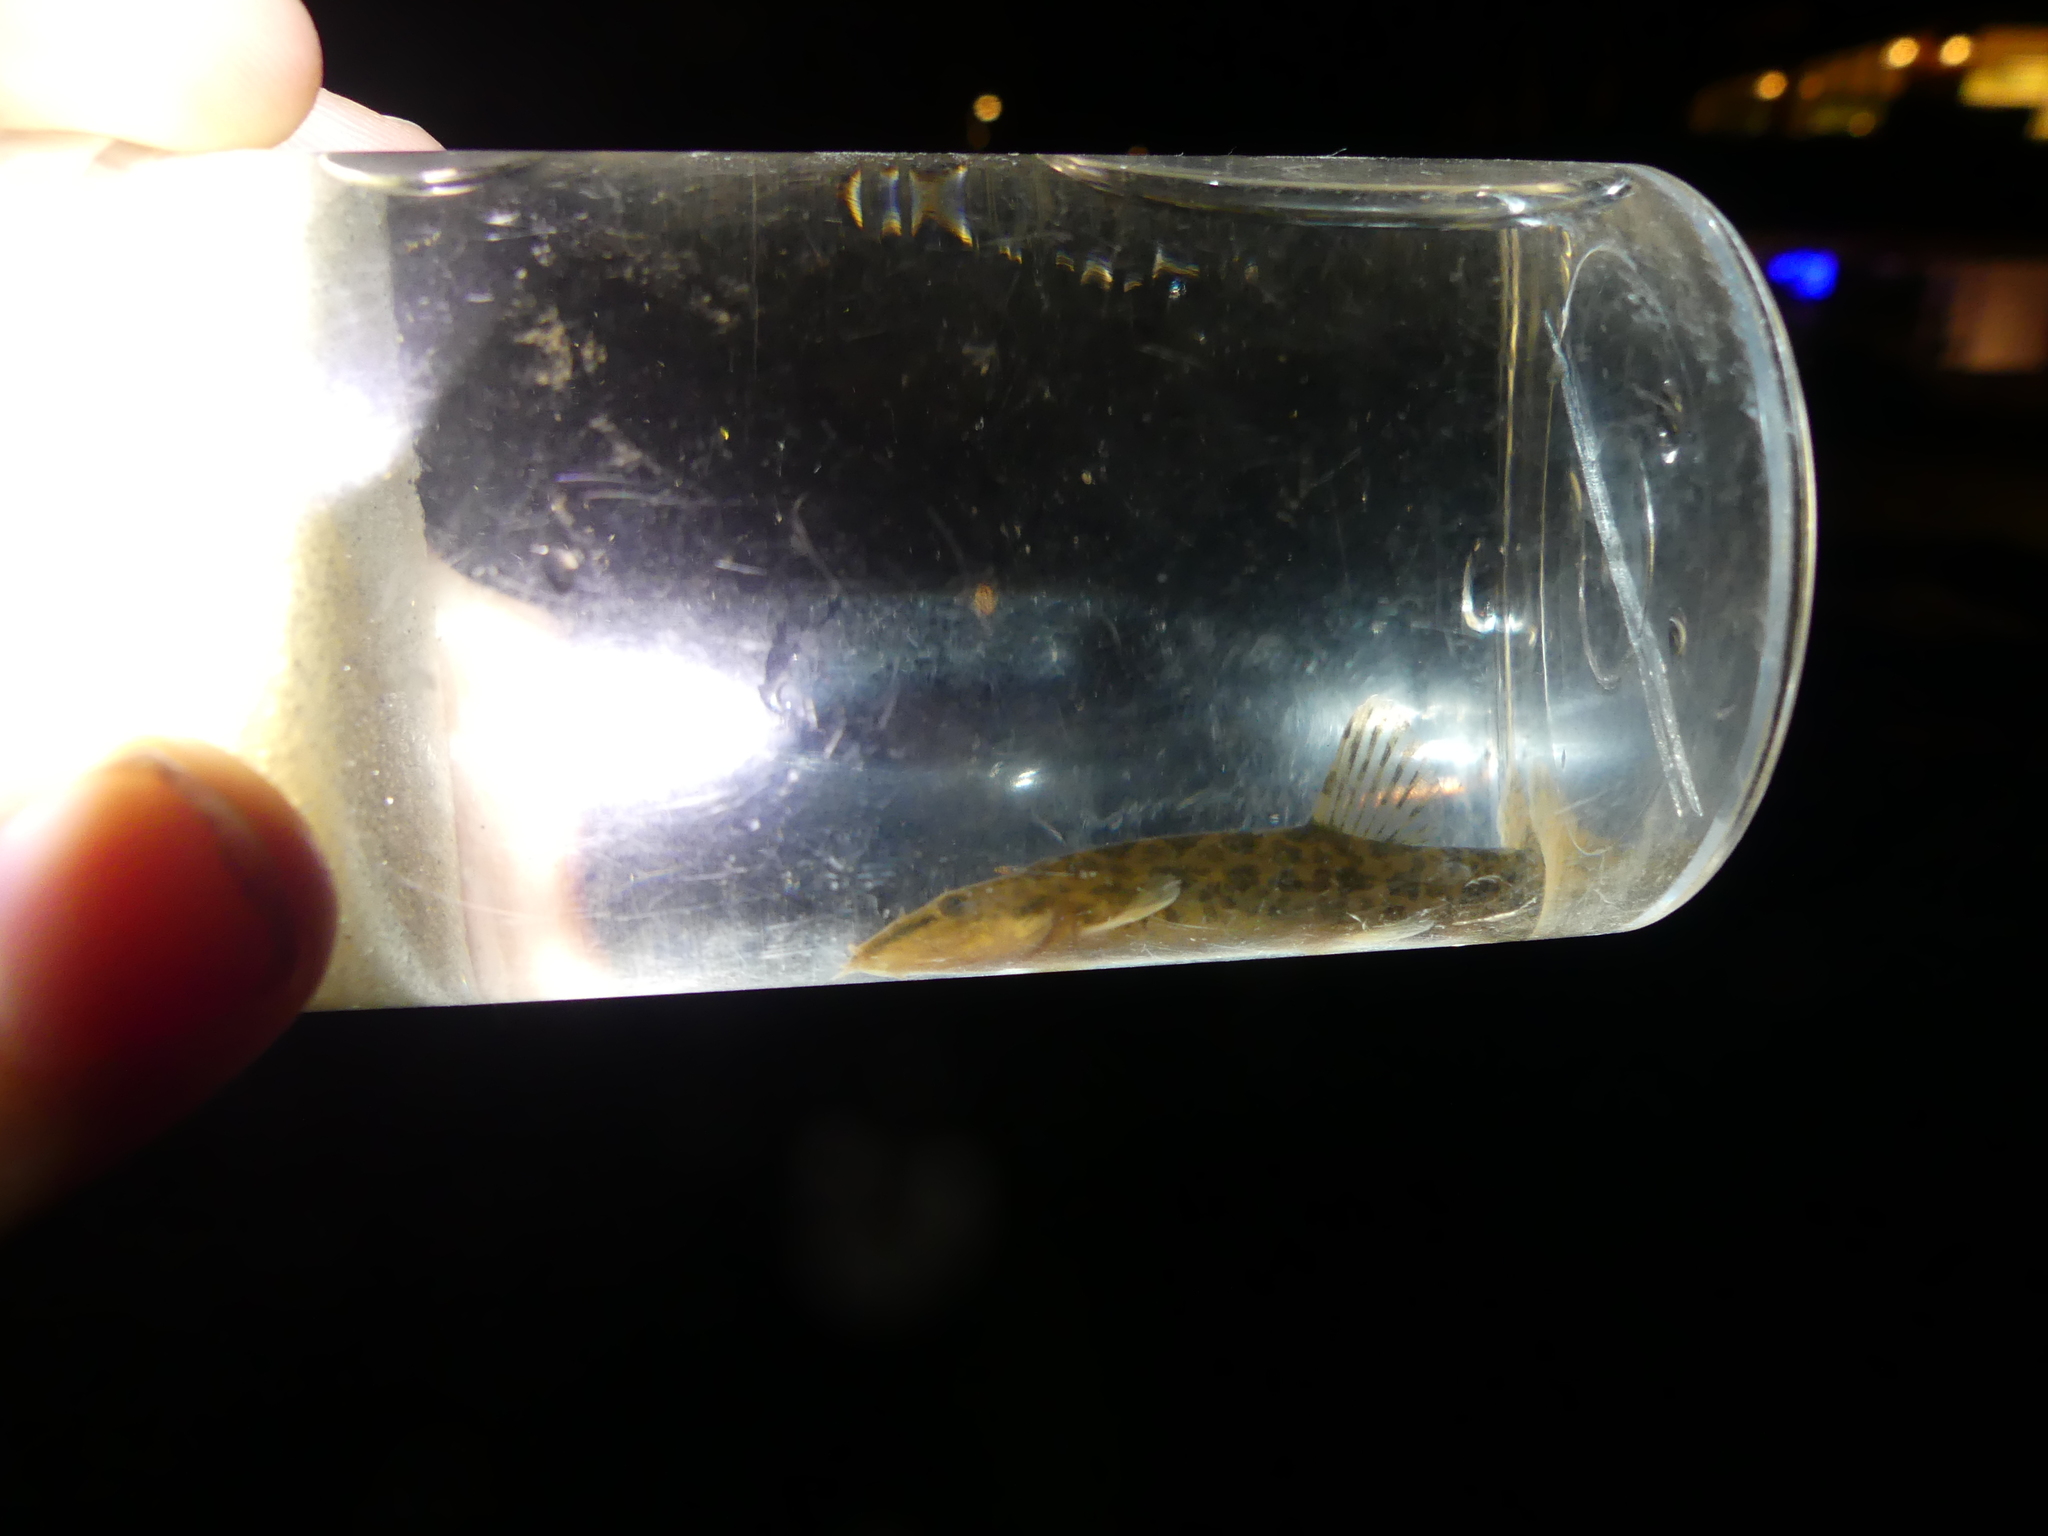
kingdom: Animalia
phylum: Chordata
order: Cypriniformes
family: Nemacheilidae
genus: Barbatula
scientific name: Barbatula barbatula
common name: Stone loach
